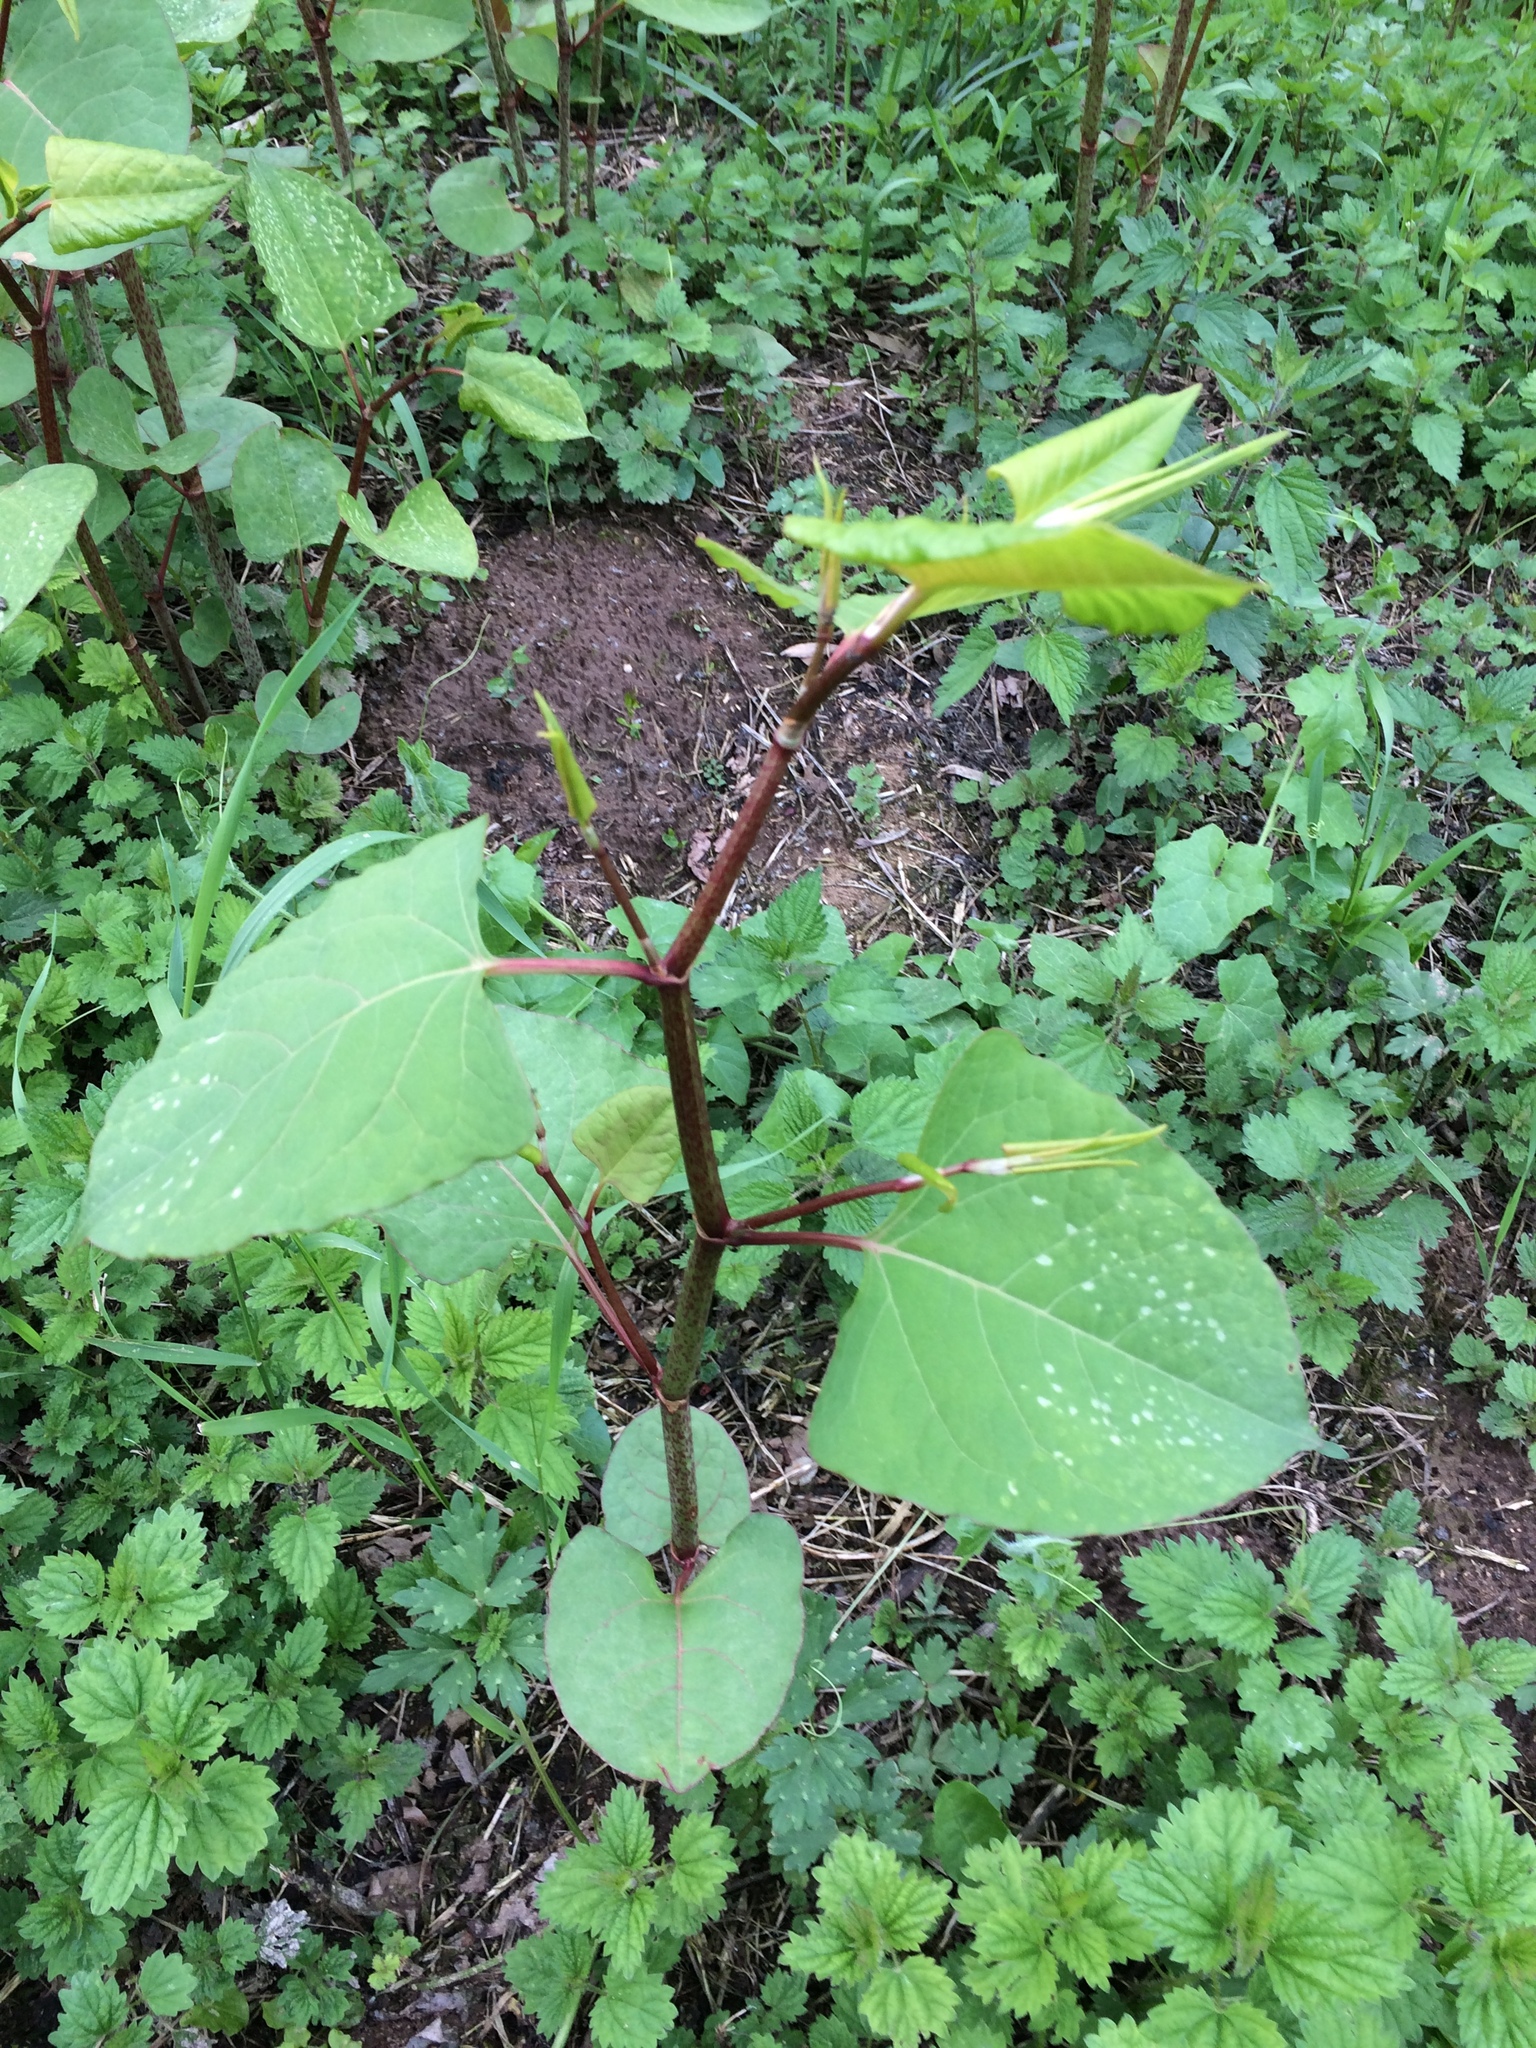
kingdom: Plantae
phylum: Tracheophyta
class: Magnoliopsida
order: Caryophyllales
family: Polygonaceae
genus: Reynoutria
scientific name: Reynoutria japonica
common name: Japanese knotweed
